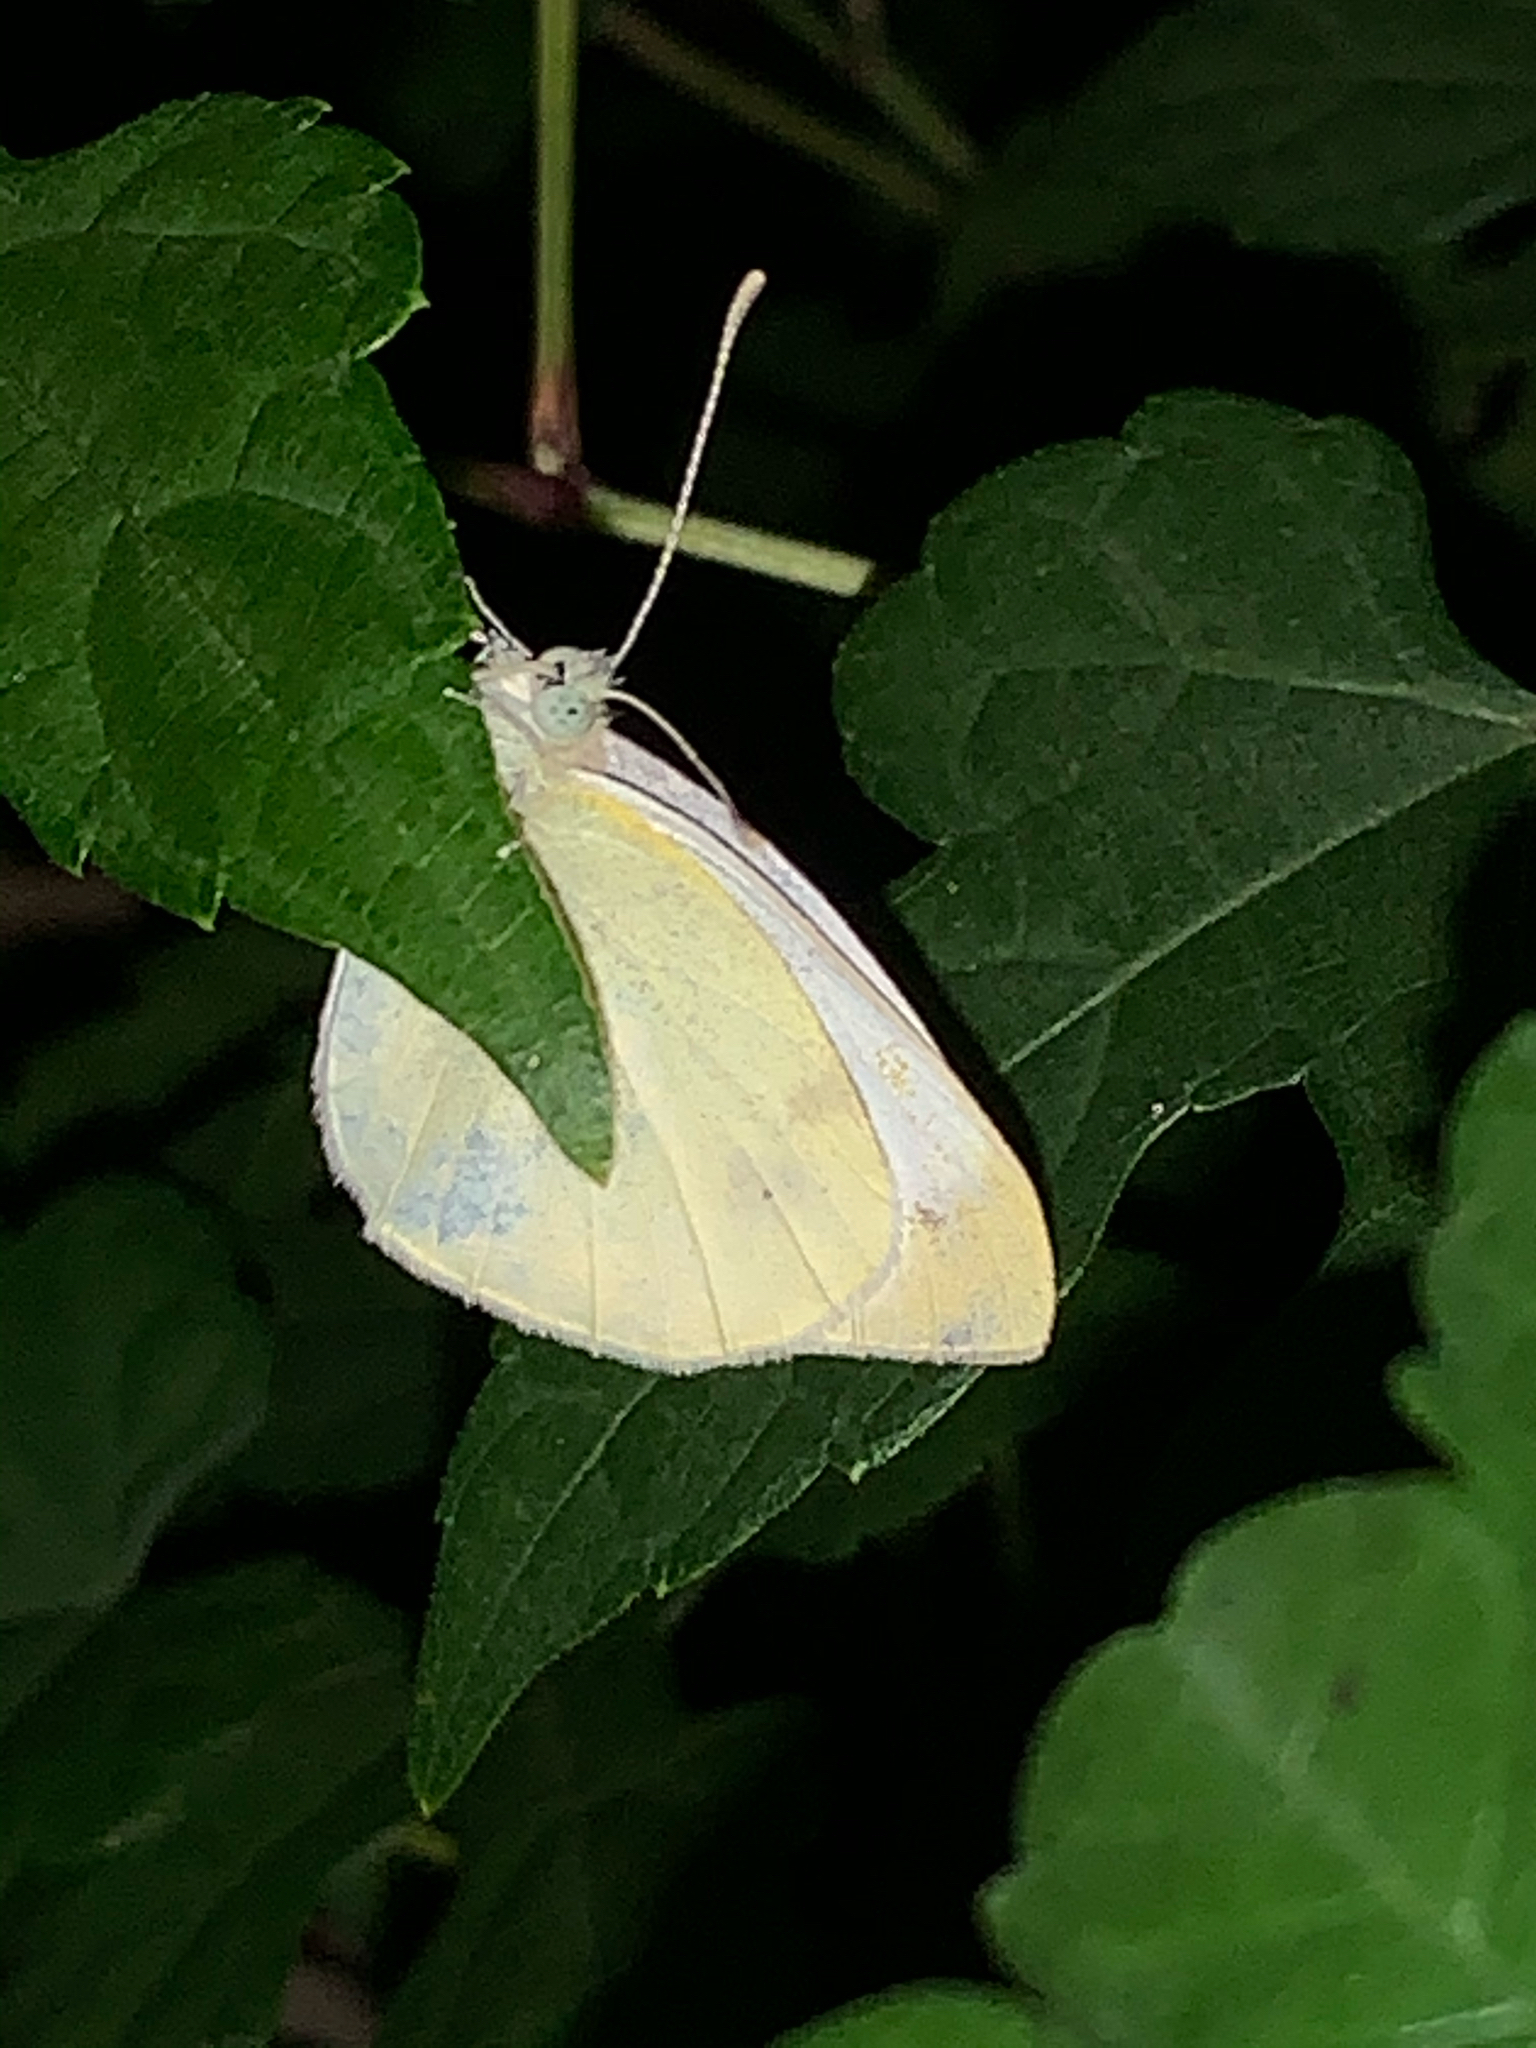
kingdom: Animalia
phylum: Arthropoda
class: Insecta
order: Lepidoptera
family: Pieridae
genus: Pieris
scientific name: Pieris rapae
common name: Small white
